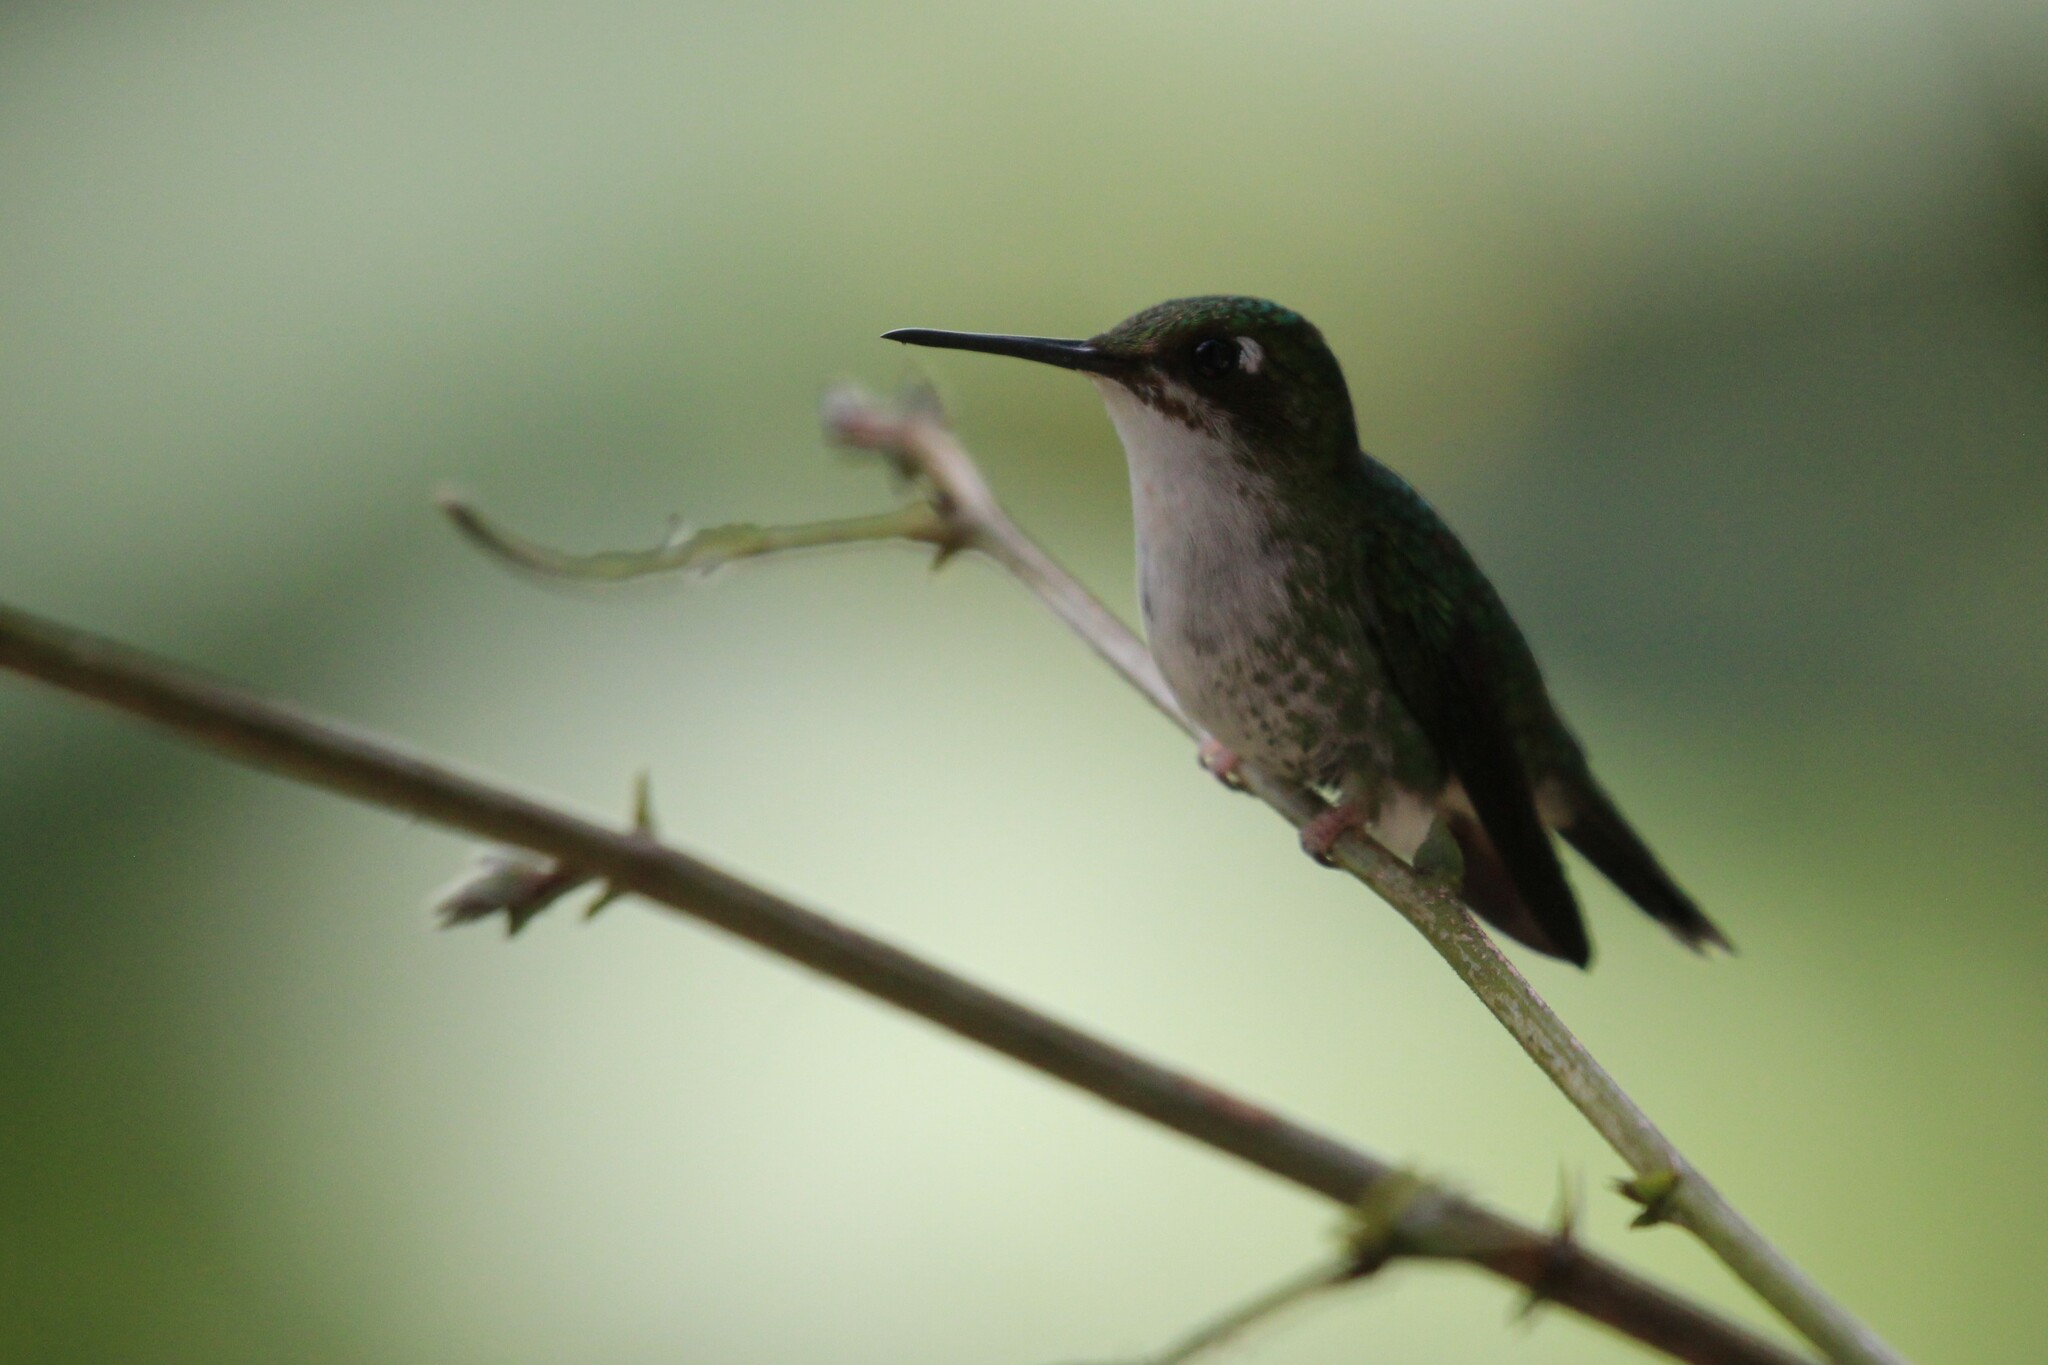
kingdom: Animalia
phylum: Chordata
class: Aves
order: Apodiformes
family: Trochilidae
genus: Ocreatus
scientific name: Ocreatus underwoodii
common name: Booted racket-tail
